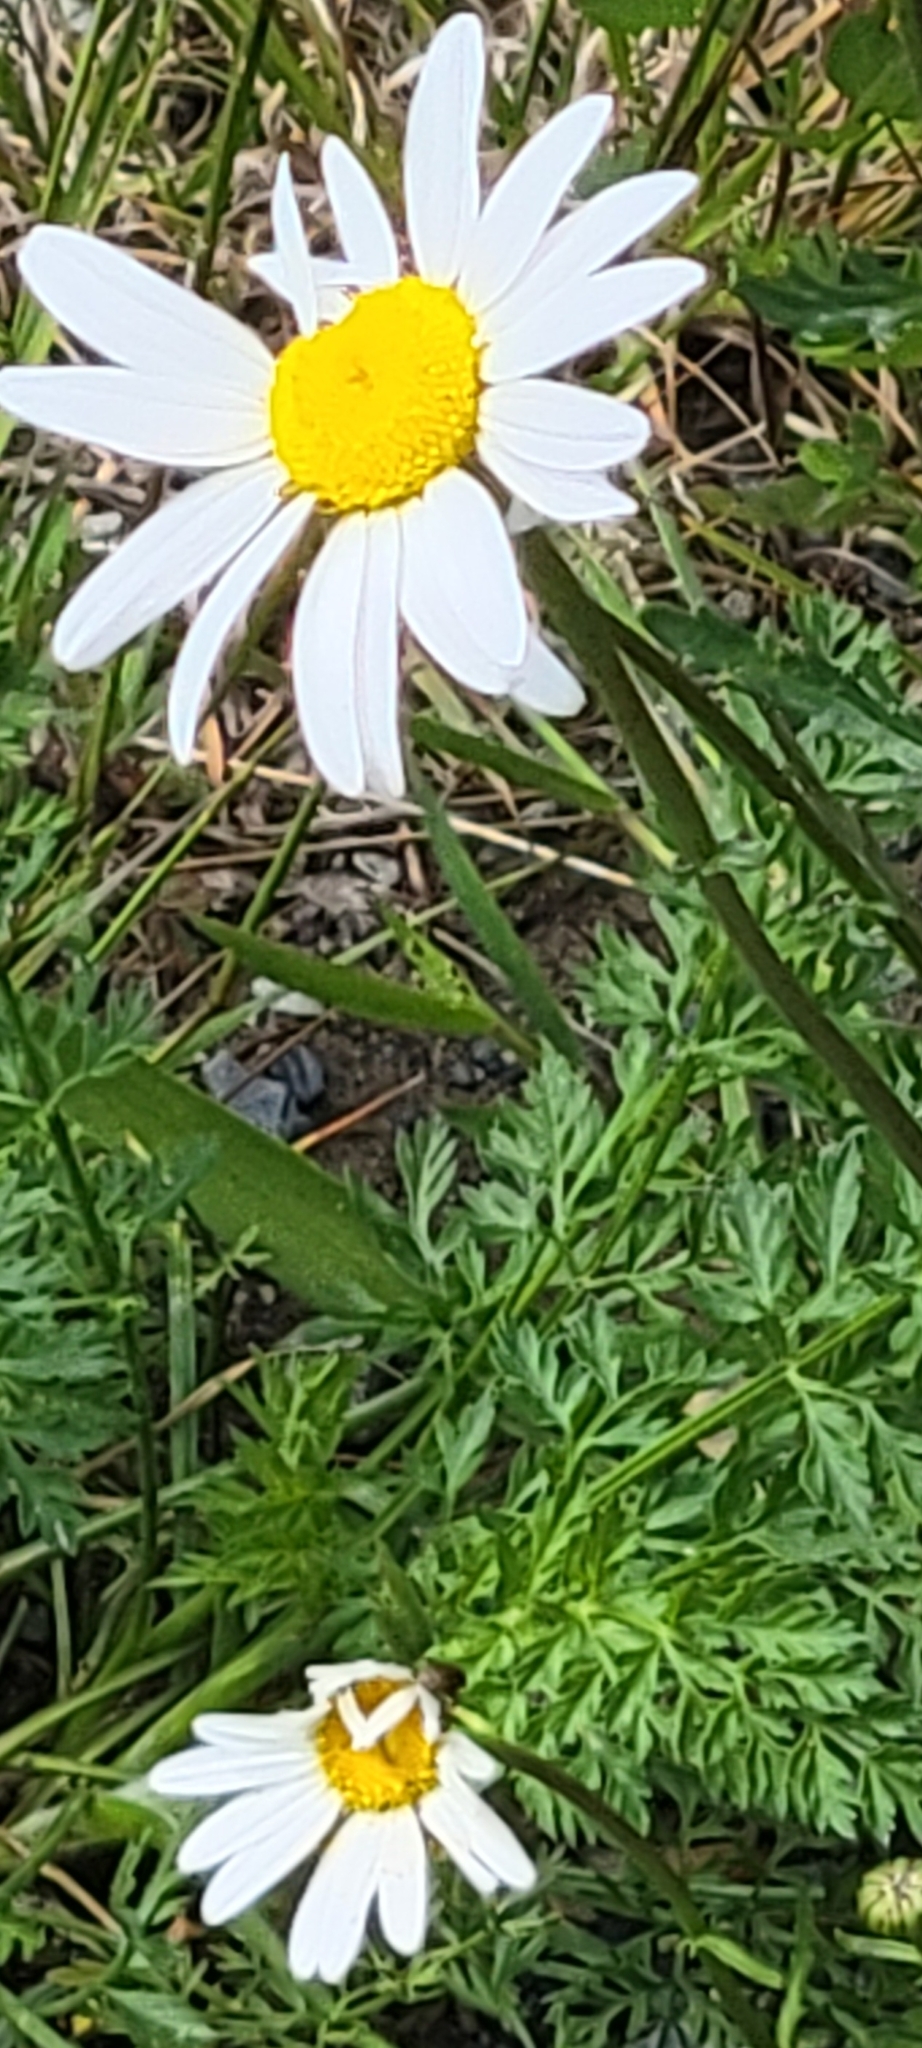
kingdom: Plantae
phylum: Tracheophyta
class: Magnoliopsida
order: Asterales
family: Asteraceae
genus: Leucanthemum
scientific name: Leucanthemum vulgare
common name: Oxeye daisy
